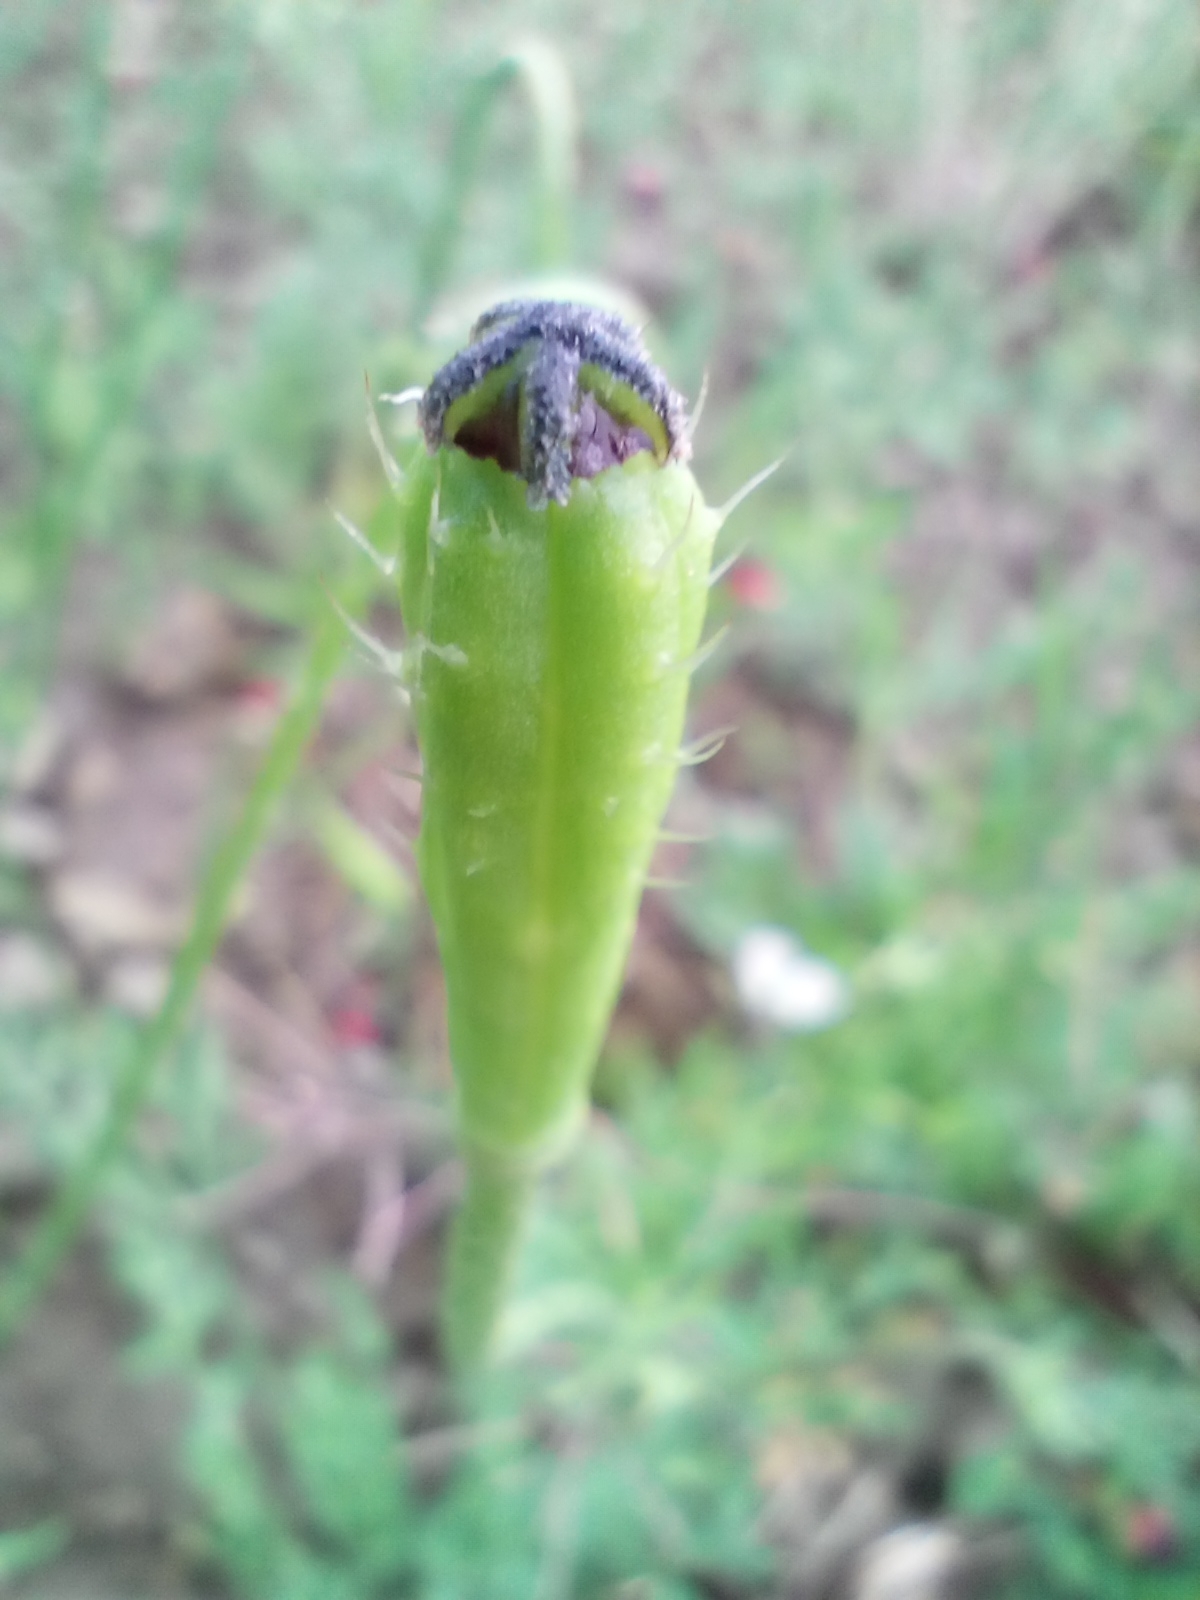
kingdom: Plantae
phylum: Tracheophyta
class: Magnoliopsida
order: Ranunculales
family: Papaveraceae
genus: Roemeria
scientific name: Roemeria argemone
